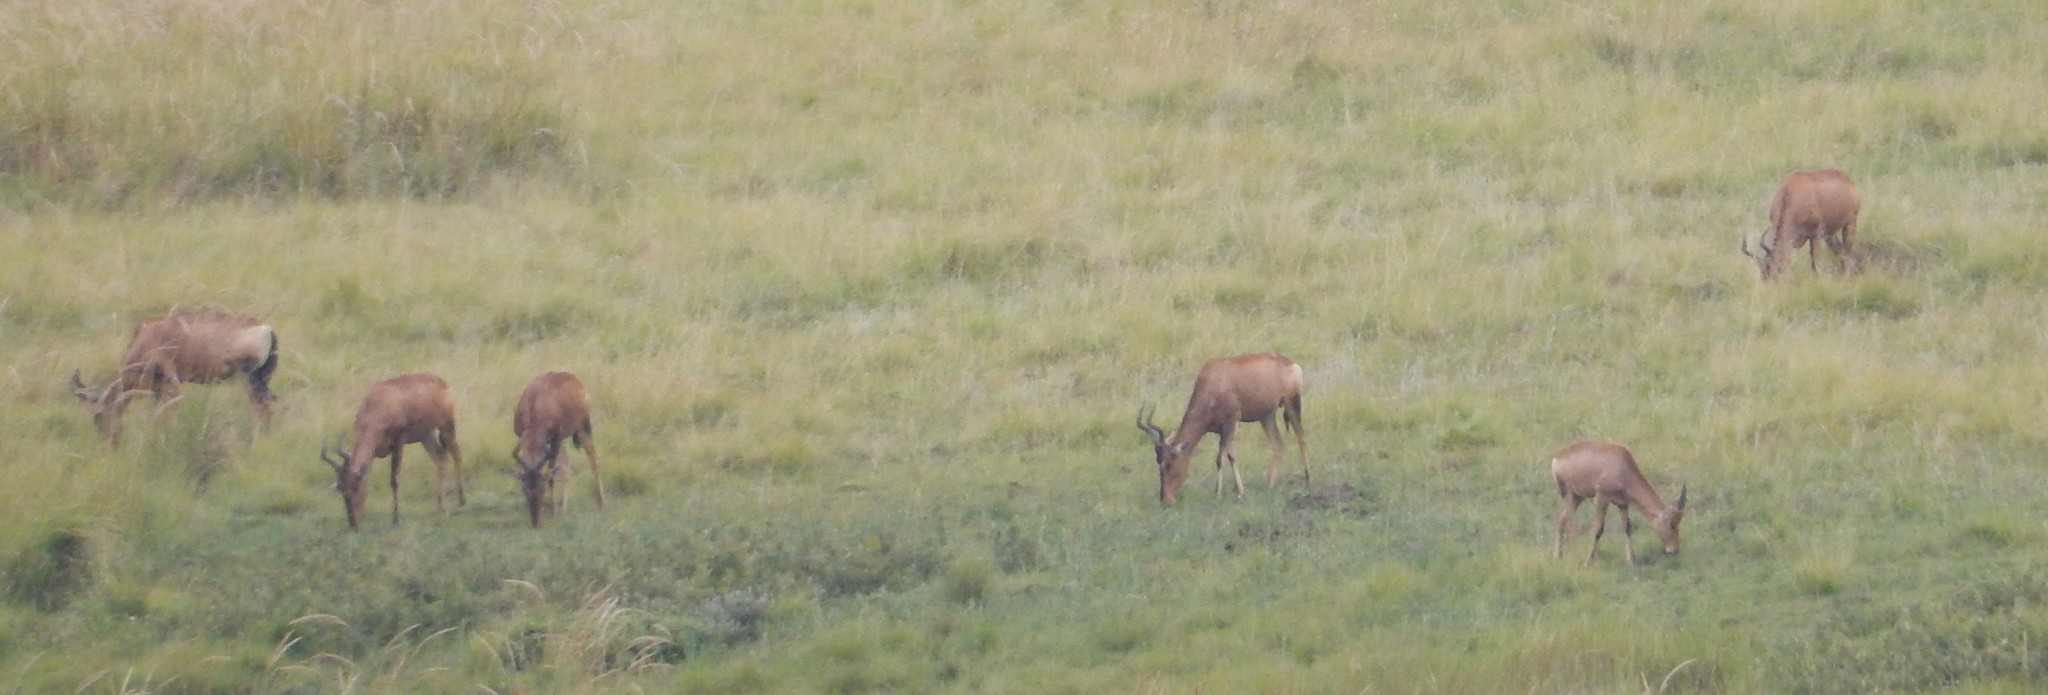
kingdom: Animalia
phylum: Chordata
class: Mammalia
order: Artiodactyla
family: Bovidae
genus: Alcelaphus
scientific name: Alcelaphus caama
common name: Red hartebeest
